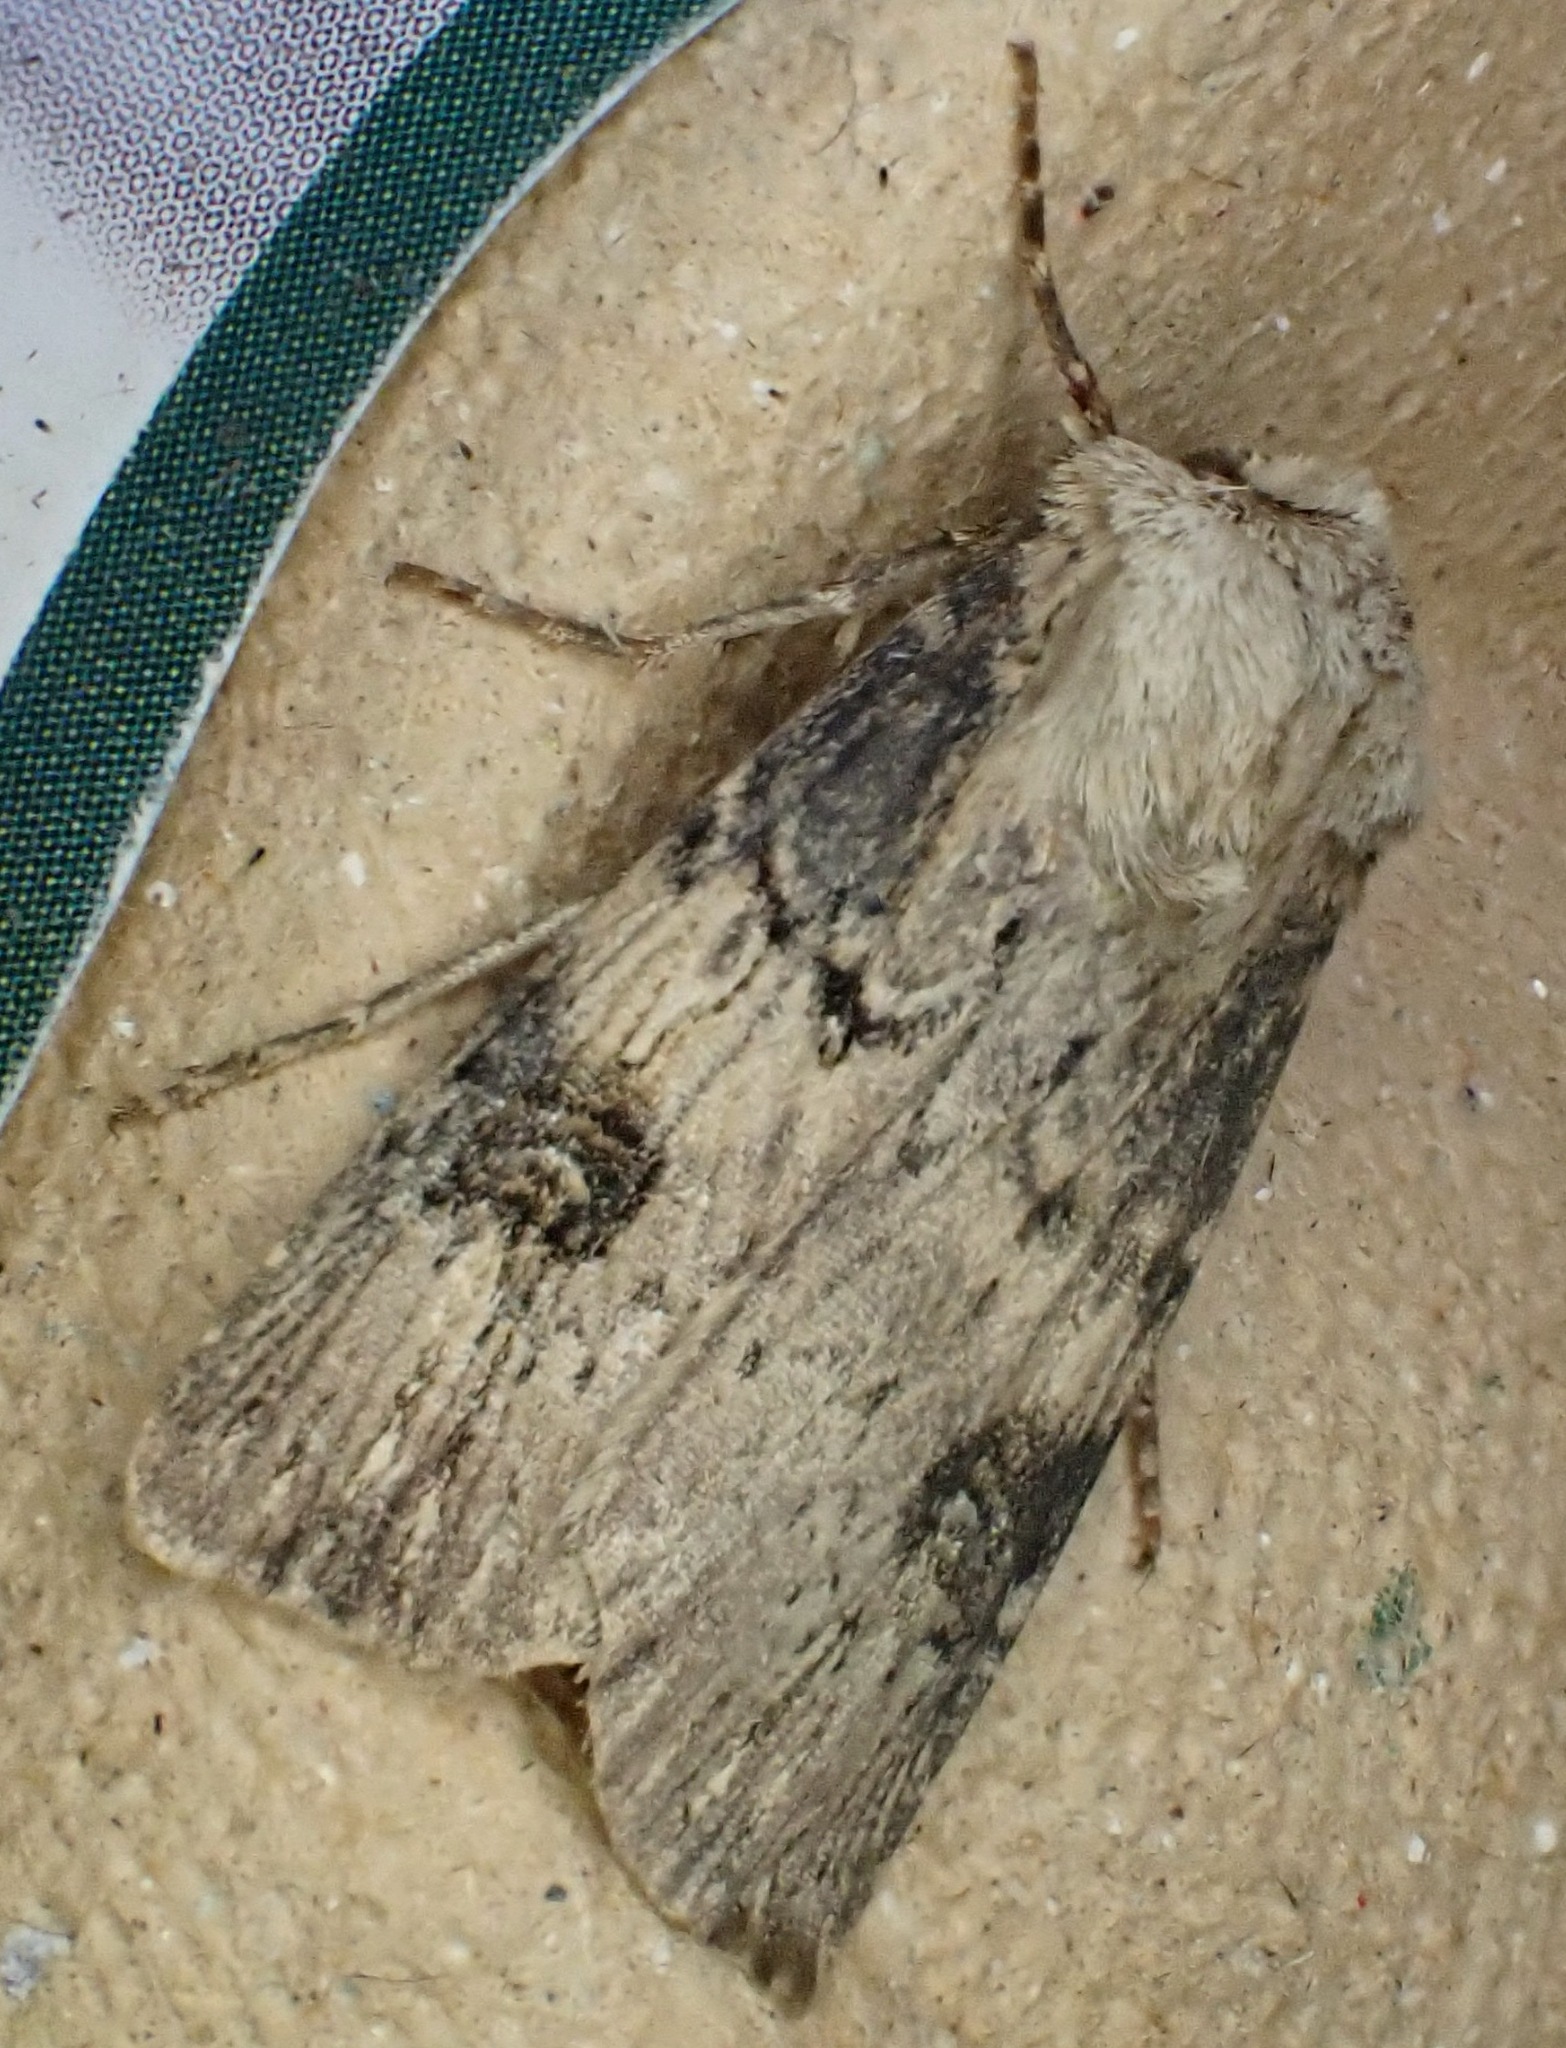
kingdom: Animalia
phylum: Arthropoda
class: Insecta
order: Lepidoptera
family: Noctuidae
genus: Agrotis
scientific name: Agrotis puta
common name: Shuttle-shaped dart
